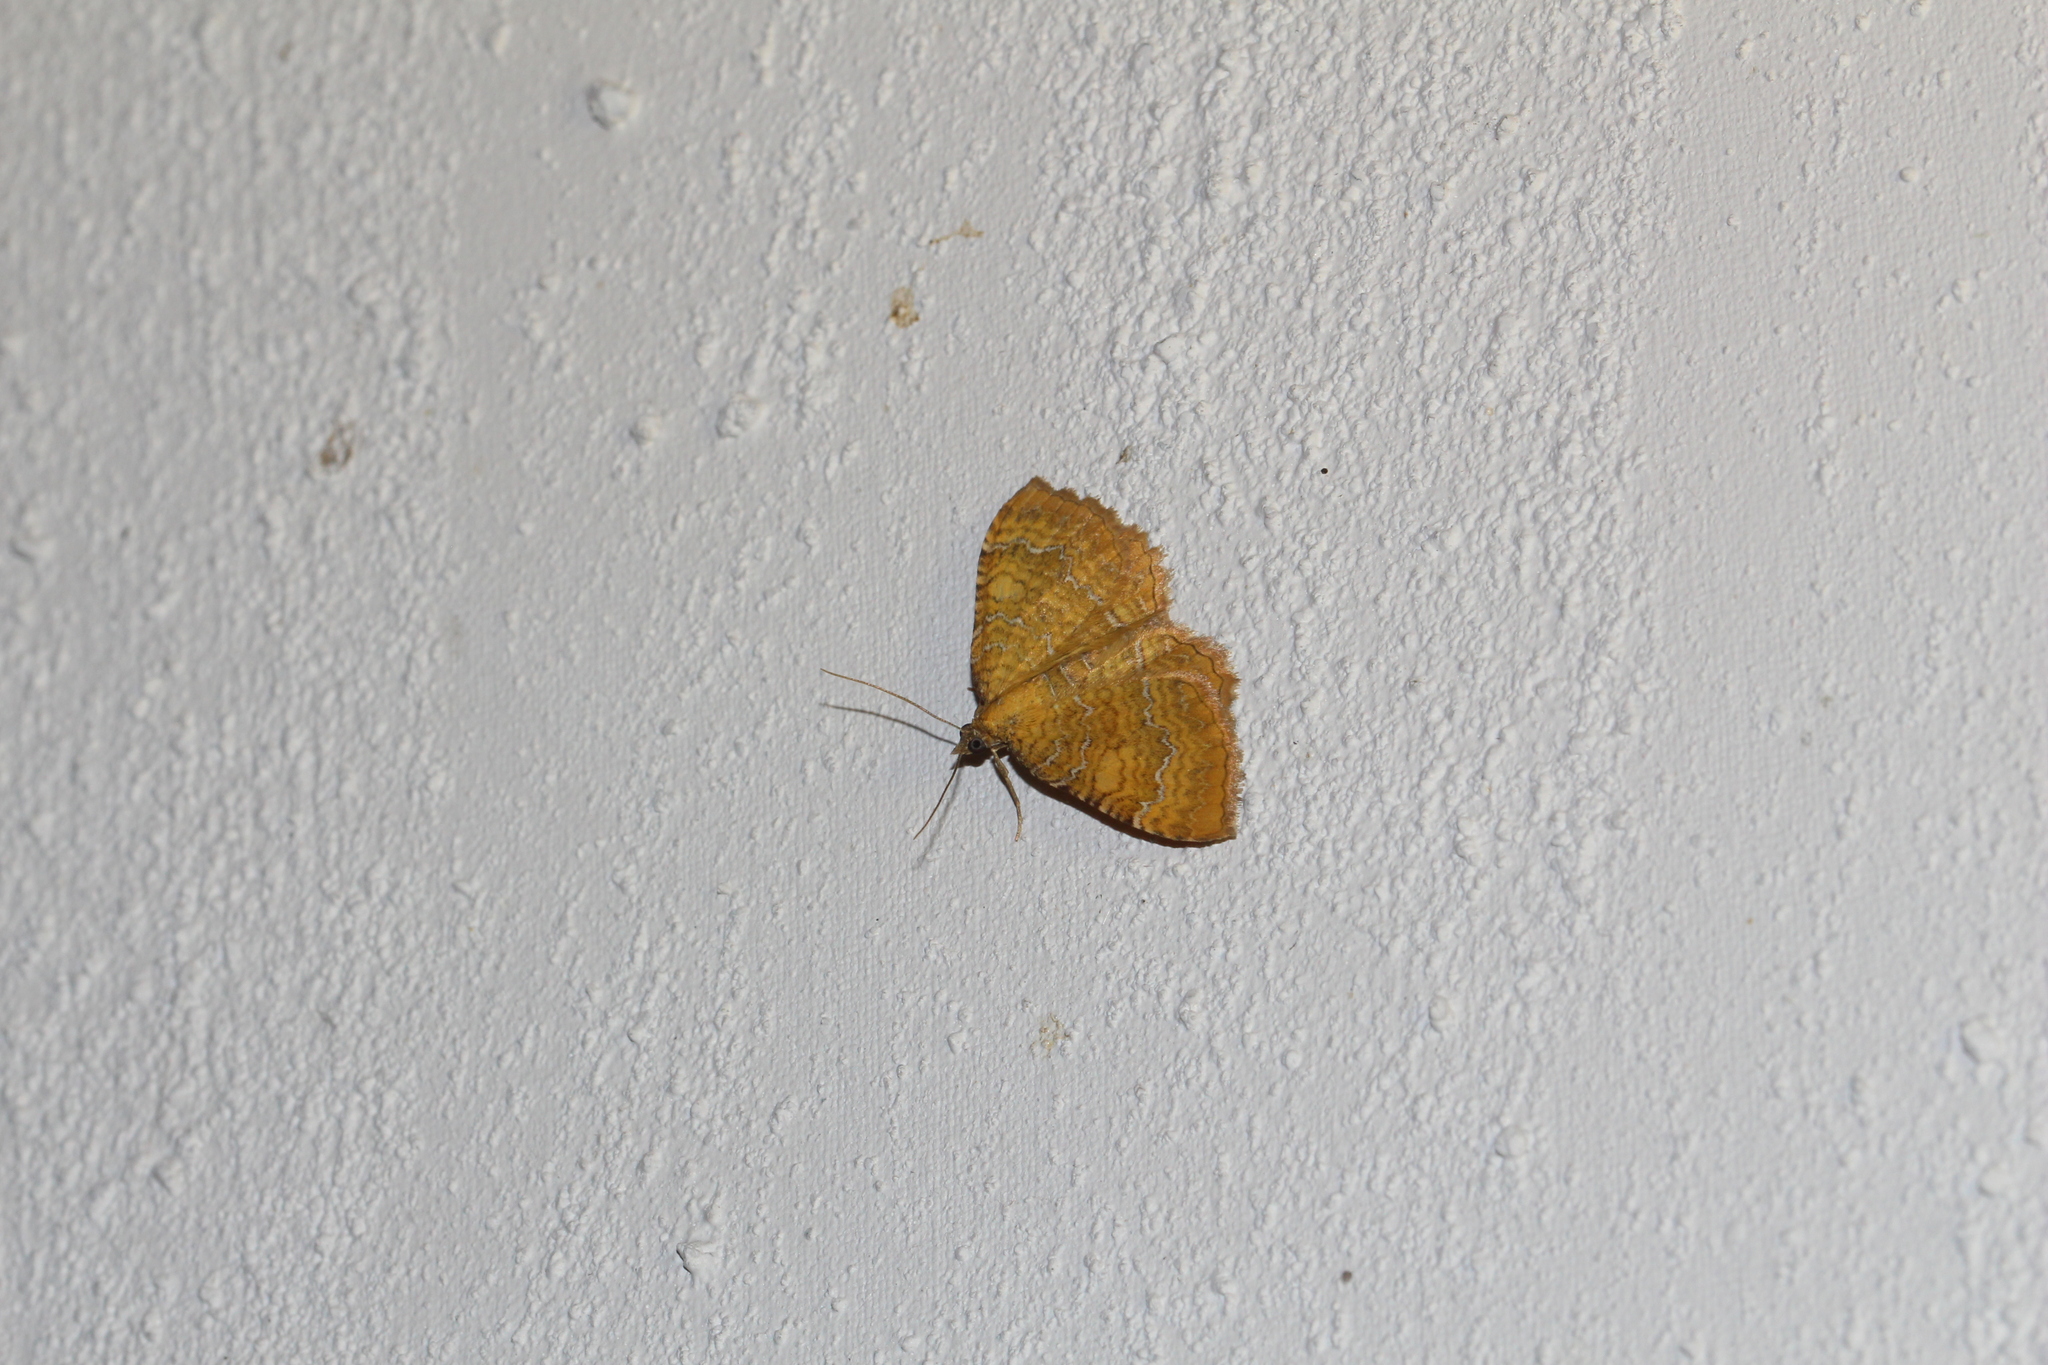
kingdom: Animalia
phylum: Arthropoda
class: Insecta
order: Lepidoptera
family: Geometridae
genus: Camptogramma
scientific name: Camptogramma bilineata
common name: Yellow shell
